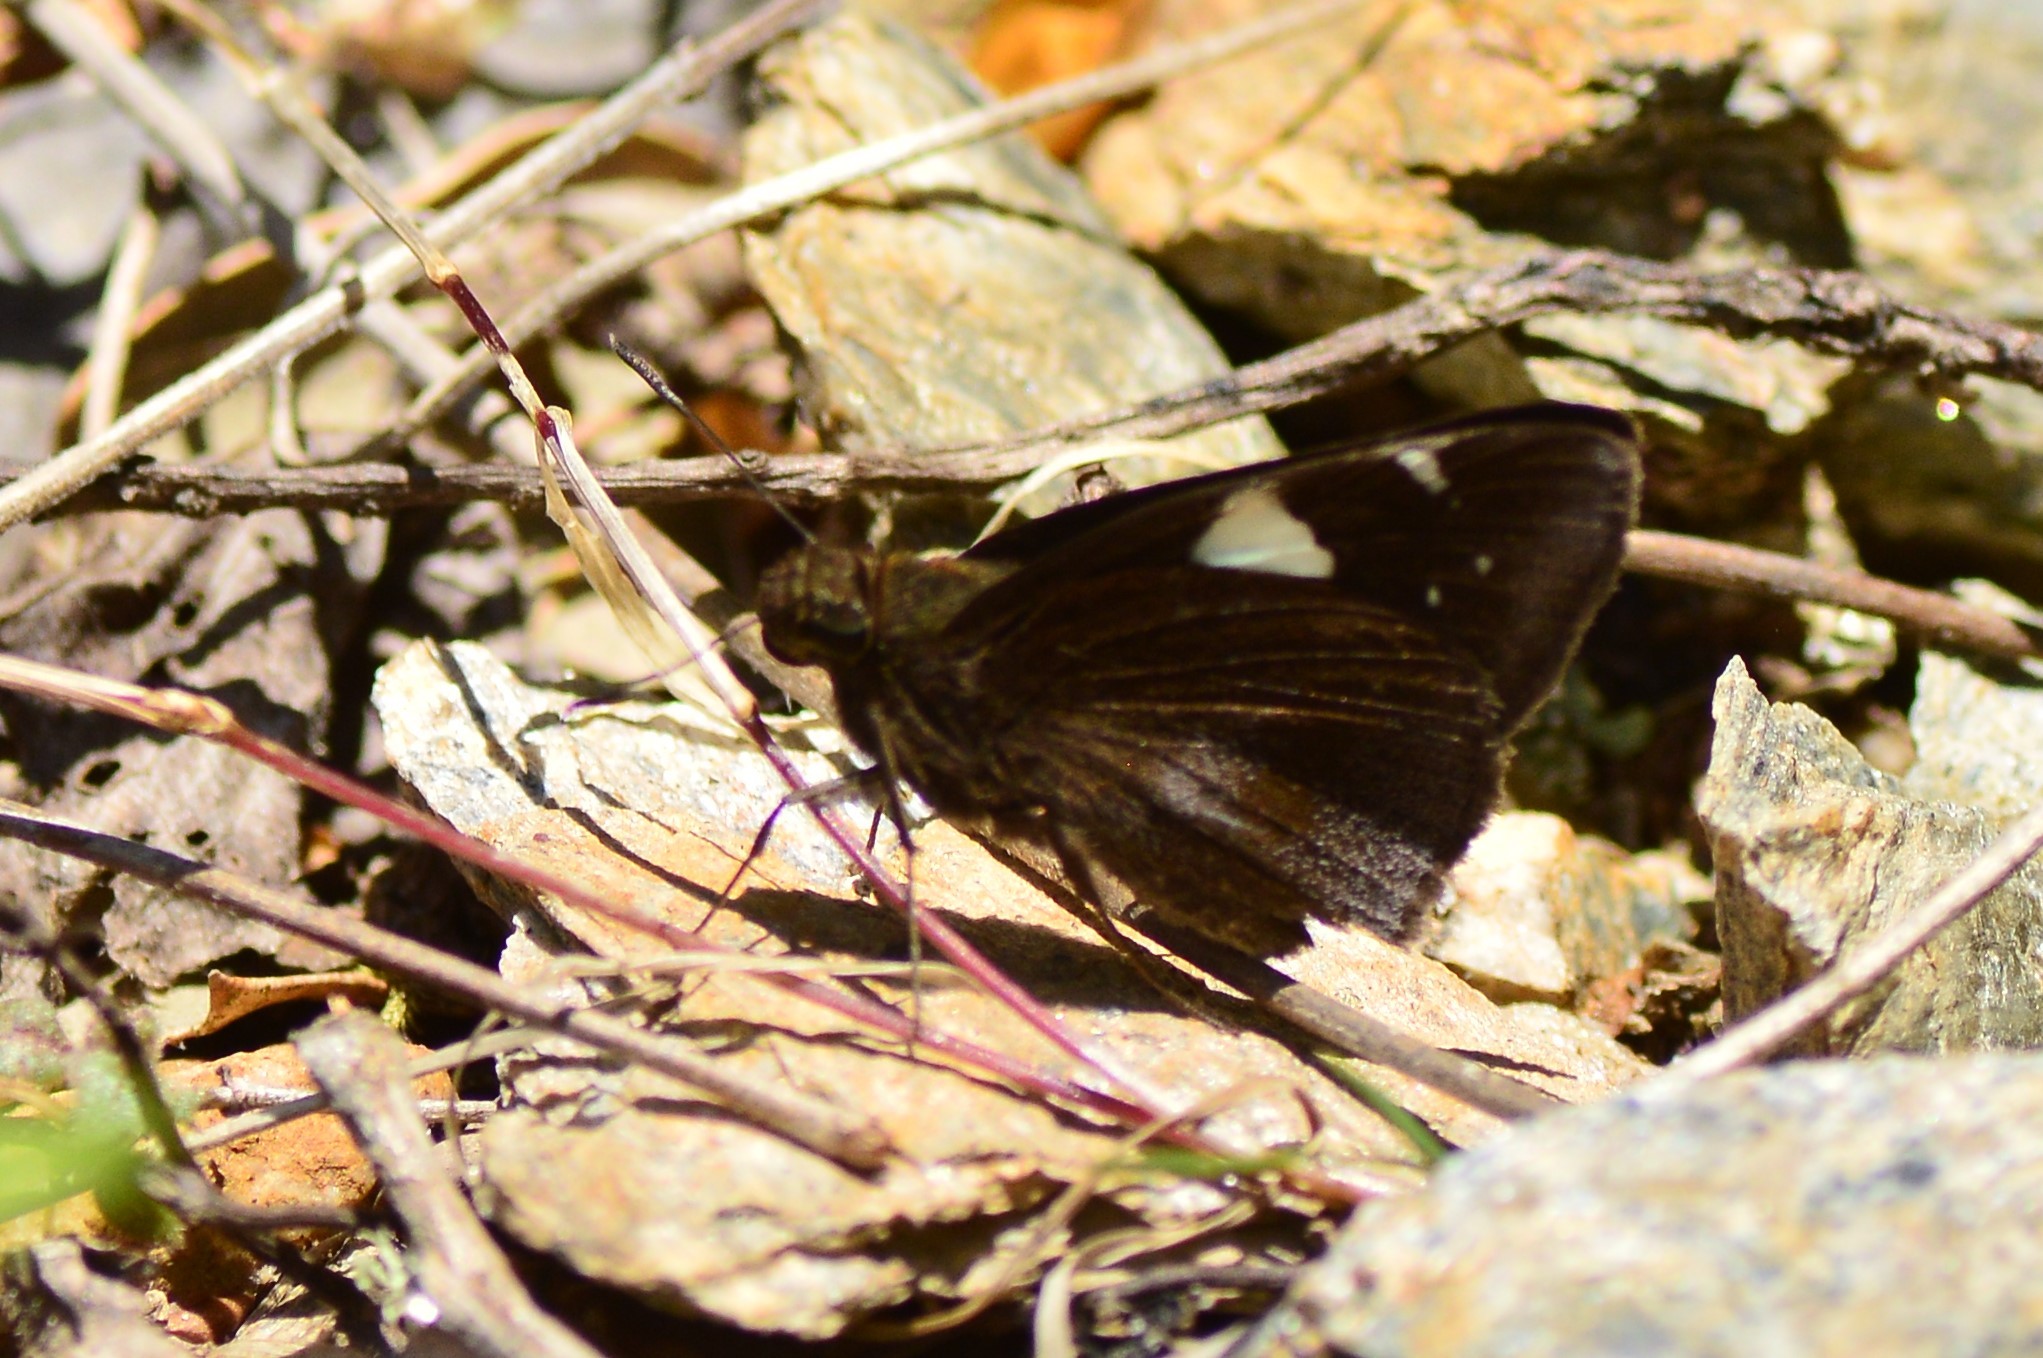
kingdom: Animalia
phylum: Arthropoda
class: Insecta
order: Lepidoptera
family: Hesperiidae
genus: Notocrypta
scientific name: Notocrypta feisthamelii
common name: Spotted demon
